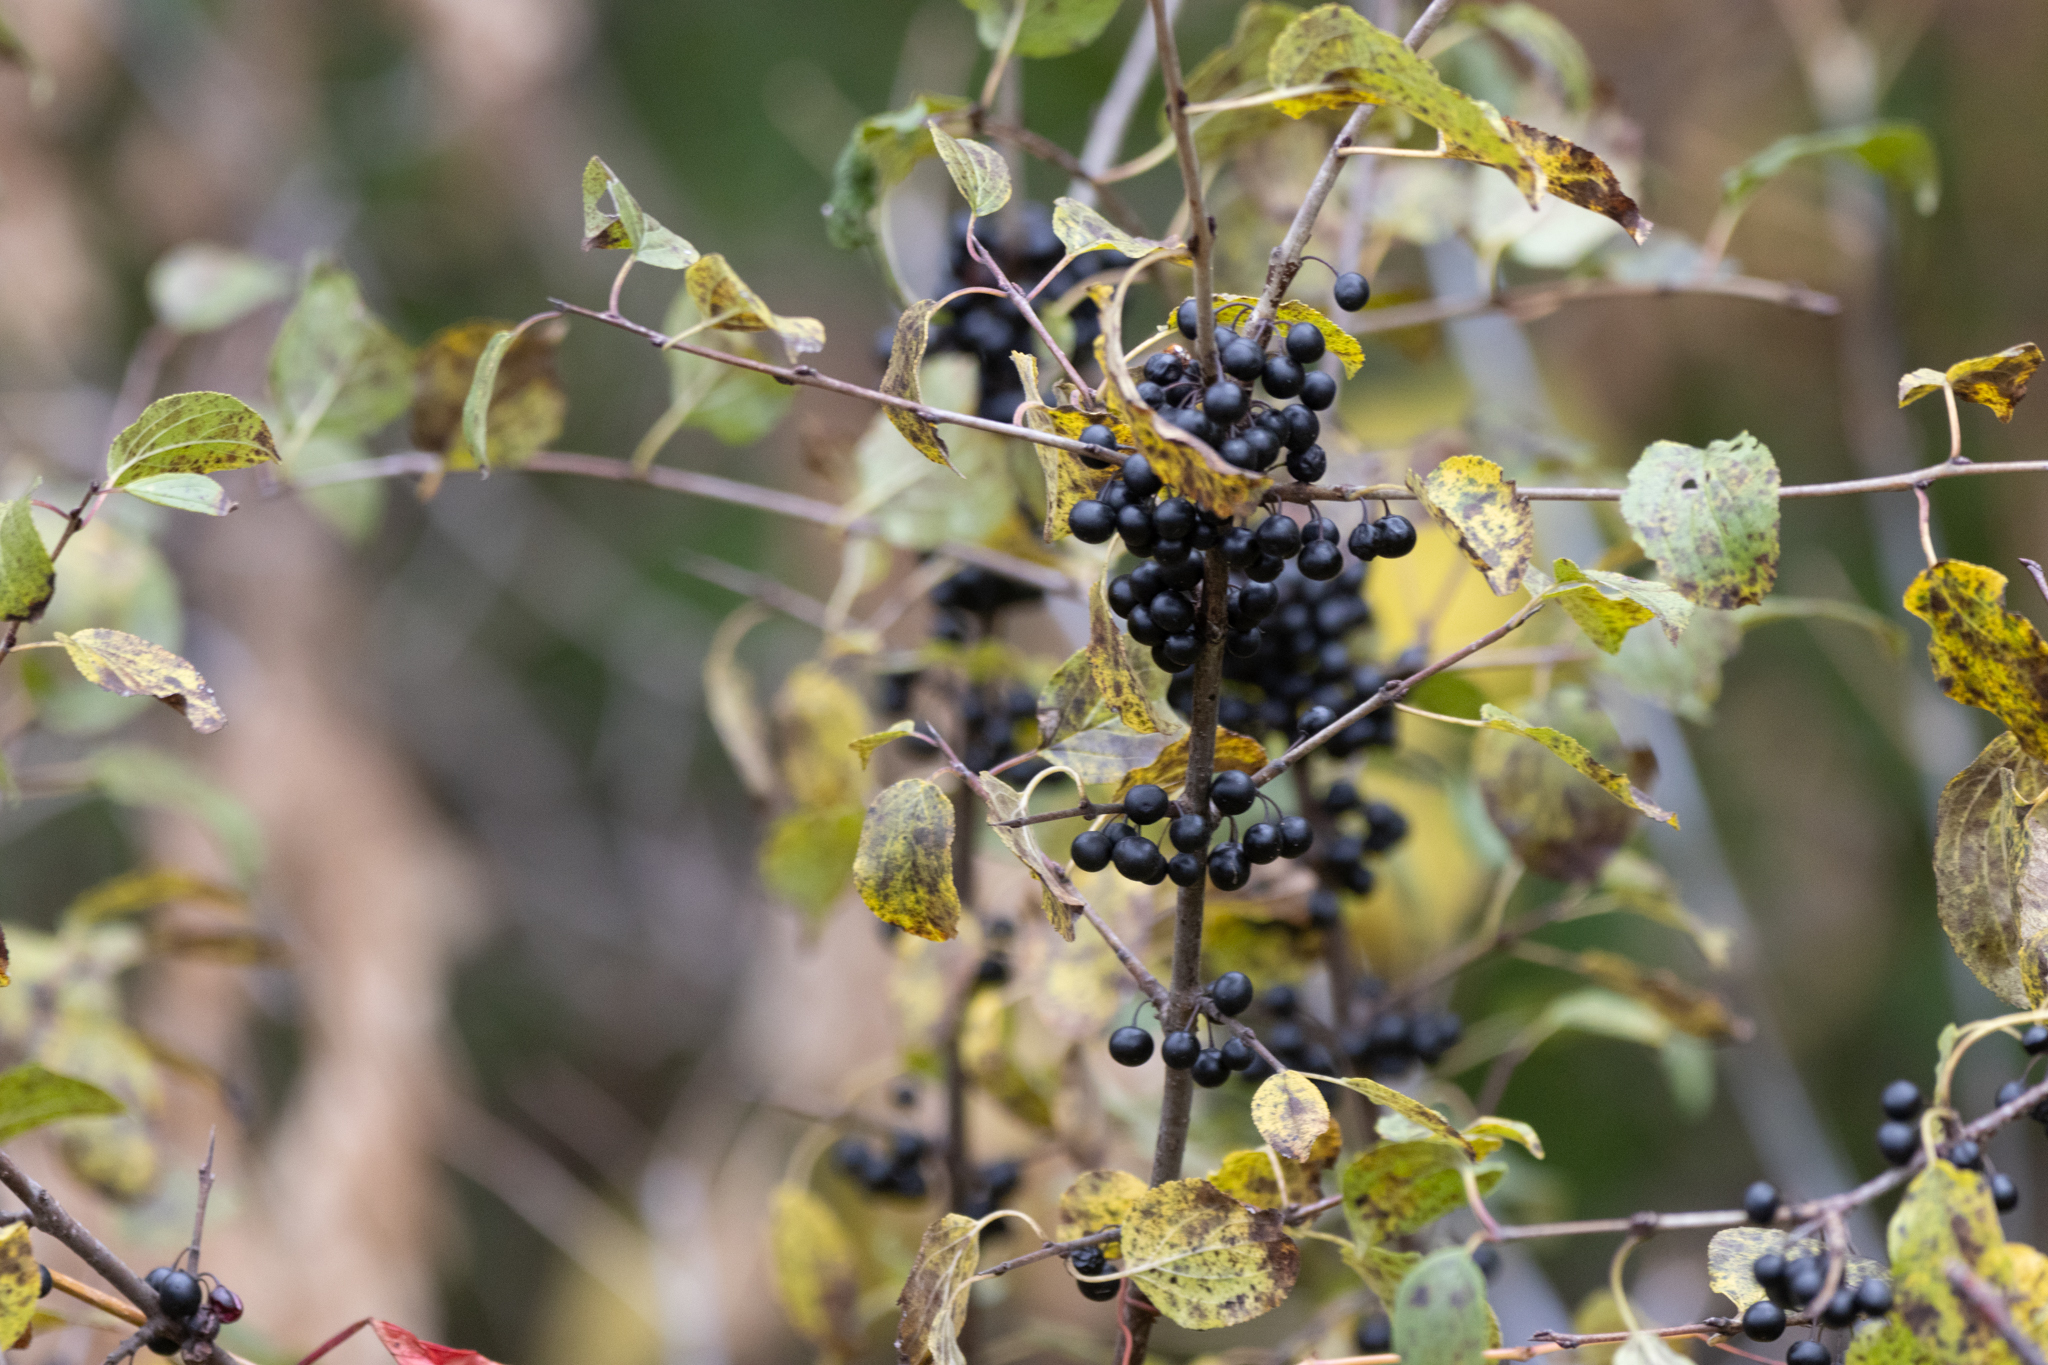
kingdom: Plantae
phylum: Tracheophyta
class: Magnoliopsida
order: Rosales
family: Rhamnaceae
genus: Rhamnus
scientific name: Rhamnus cathartica
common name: Common buckthorn
